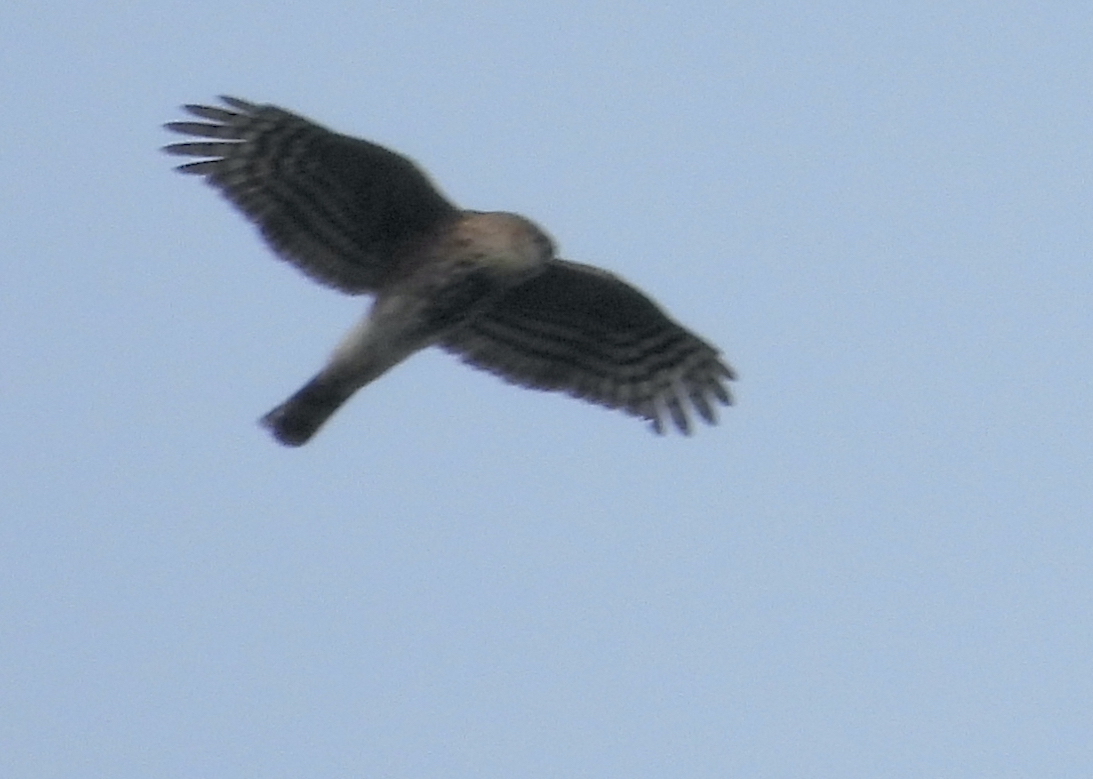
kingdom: Animalia
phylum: Chordata
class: Aves
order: Accipitriformes
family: Accipitridae
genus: Accipiter
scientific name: Accipiter striatus
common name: Sharp-shinned hawk
